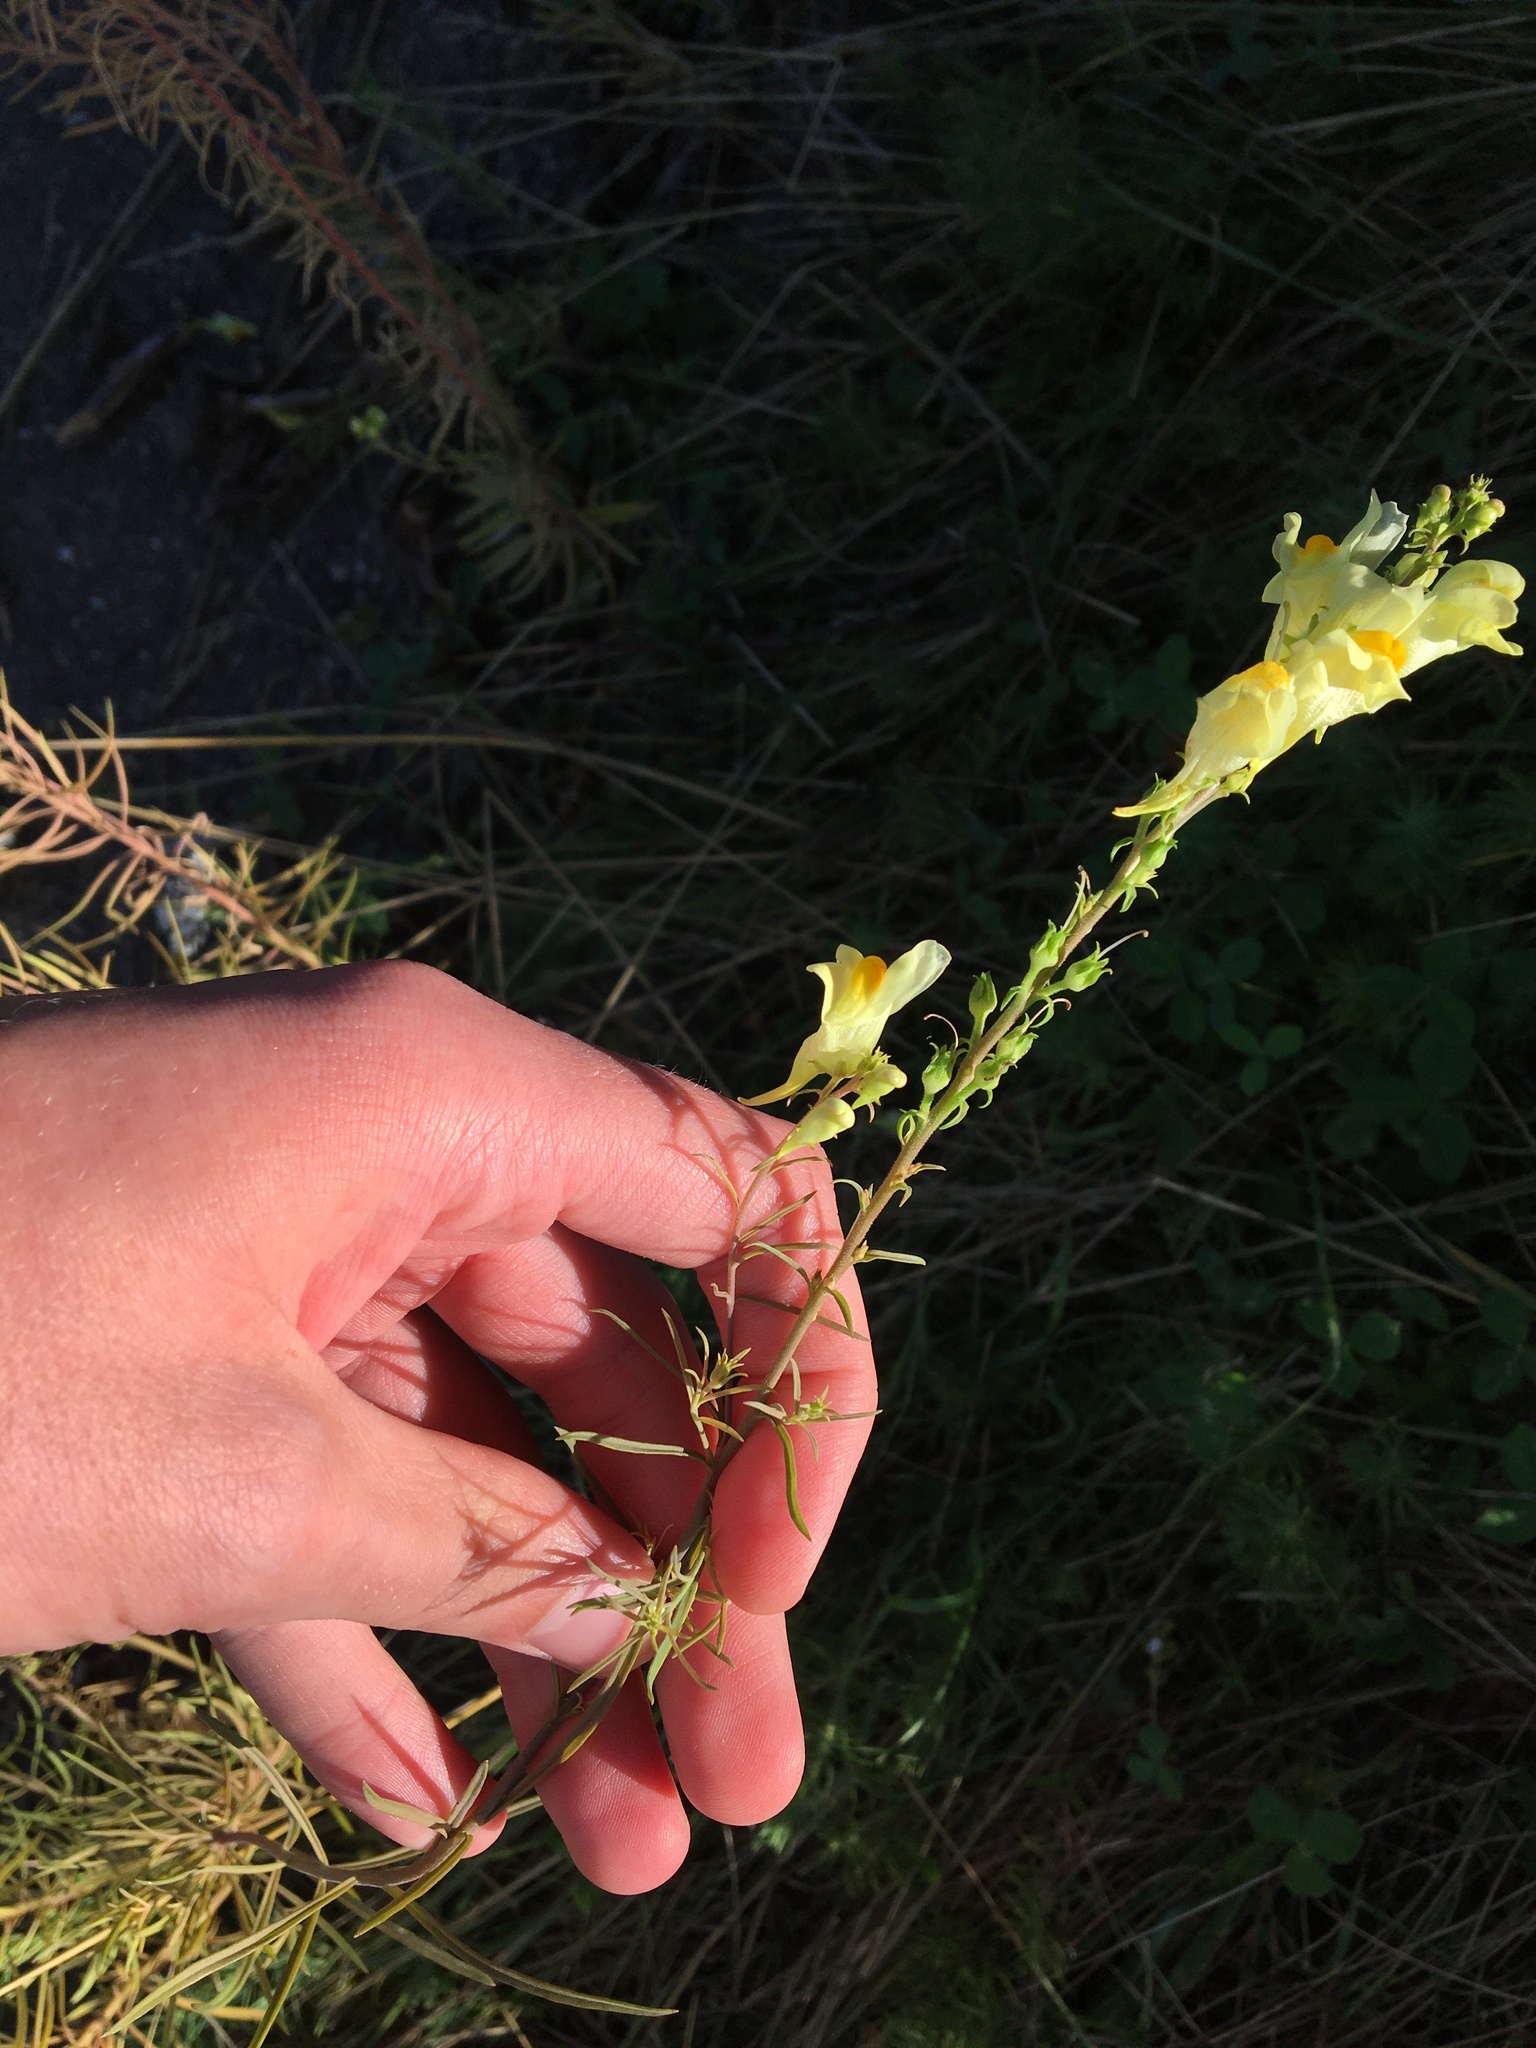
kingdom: Plantae
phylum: Tracheophyta
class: Magnoliopsida
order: Lamiales
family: Plantaginaceae
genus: Linaria
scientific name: Linaria vulgaris
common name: Butter and eggs
